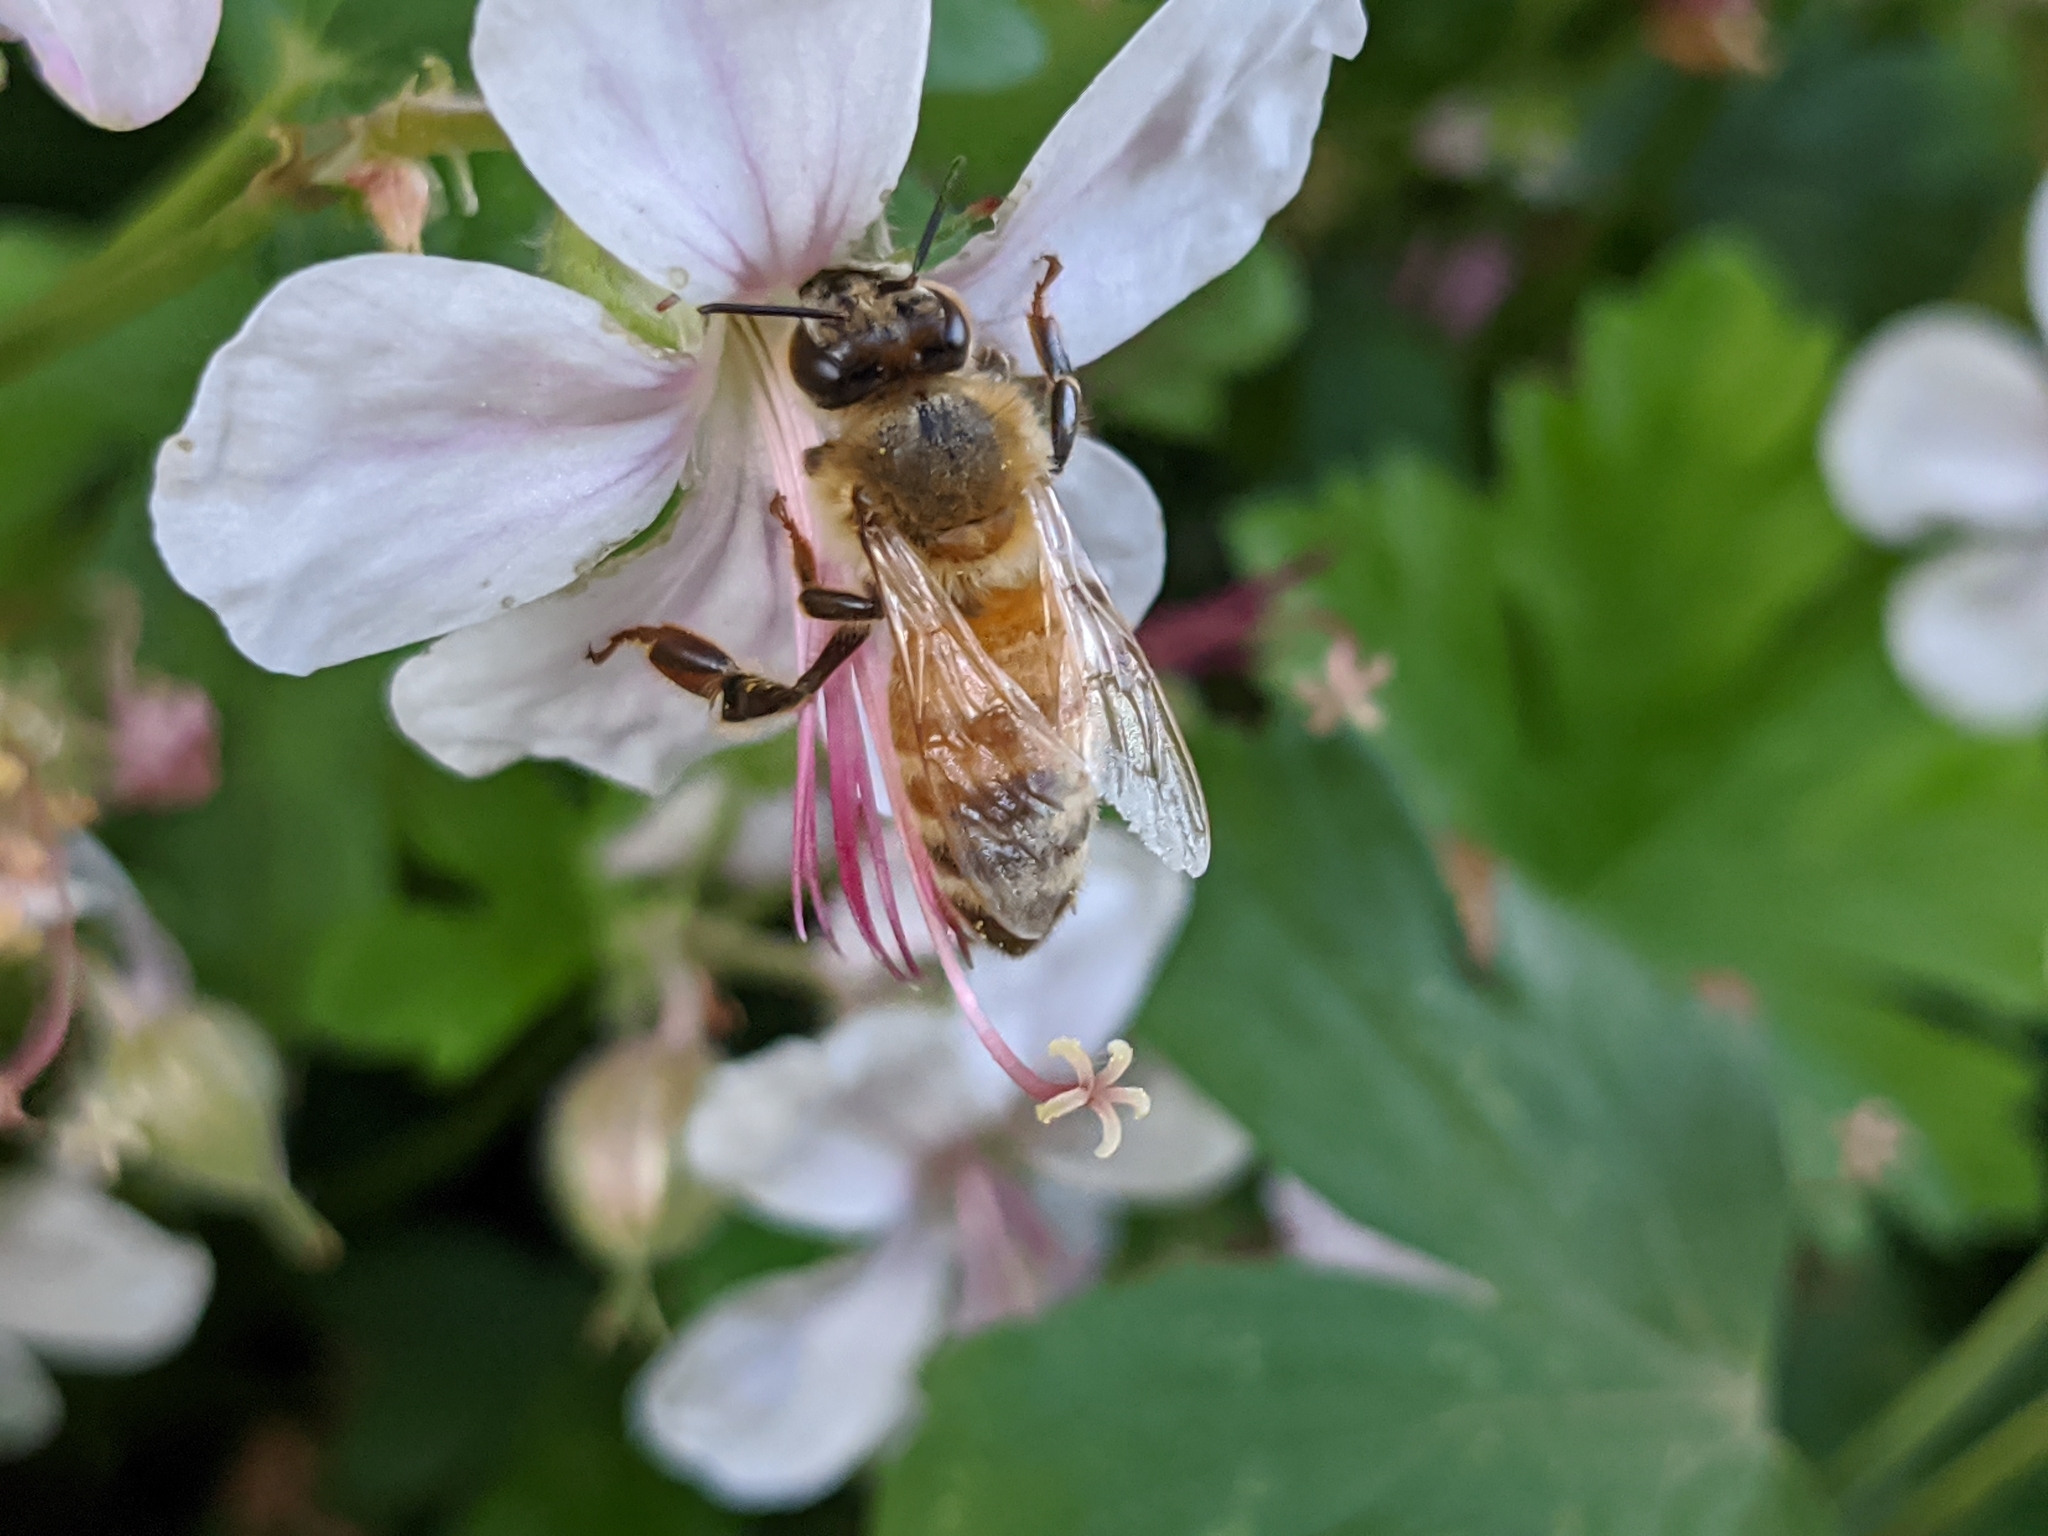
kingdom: Animalia
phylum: Arthropoda
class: Insecta
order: Hymenoptera
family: Apidae
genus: Apis
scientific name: Apis mellifera
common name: Honey bee
